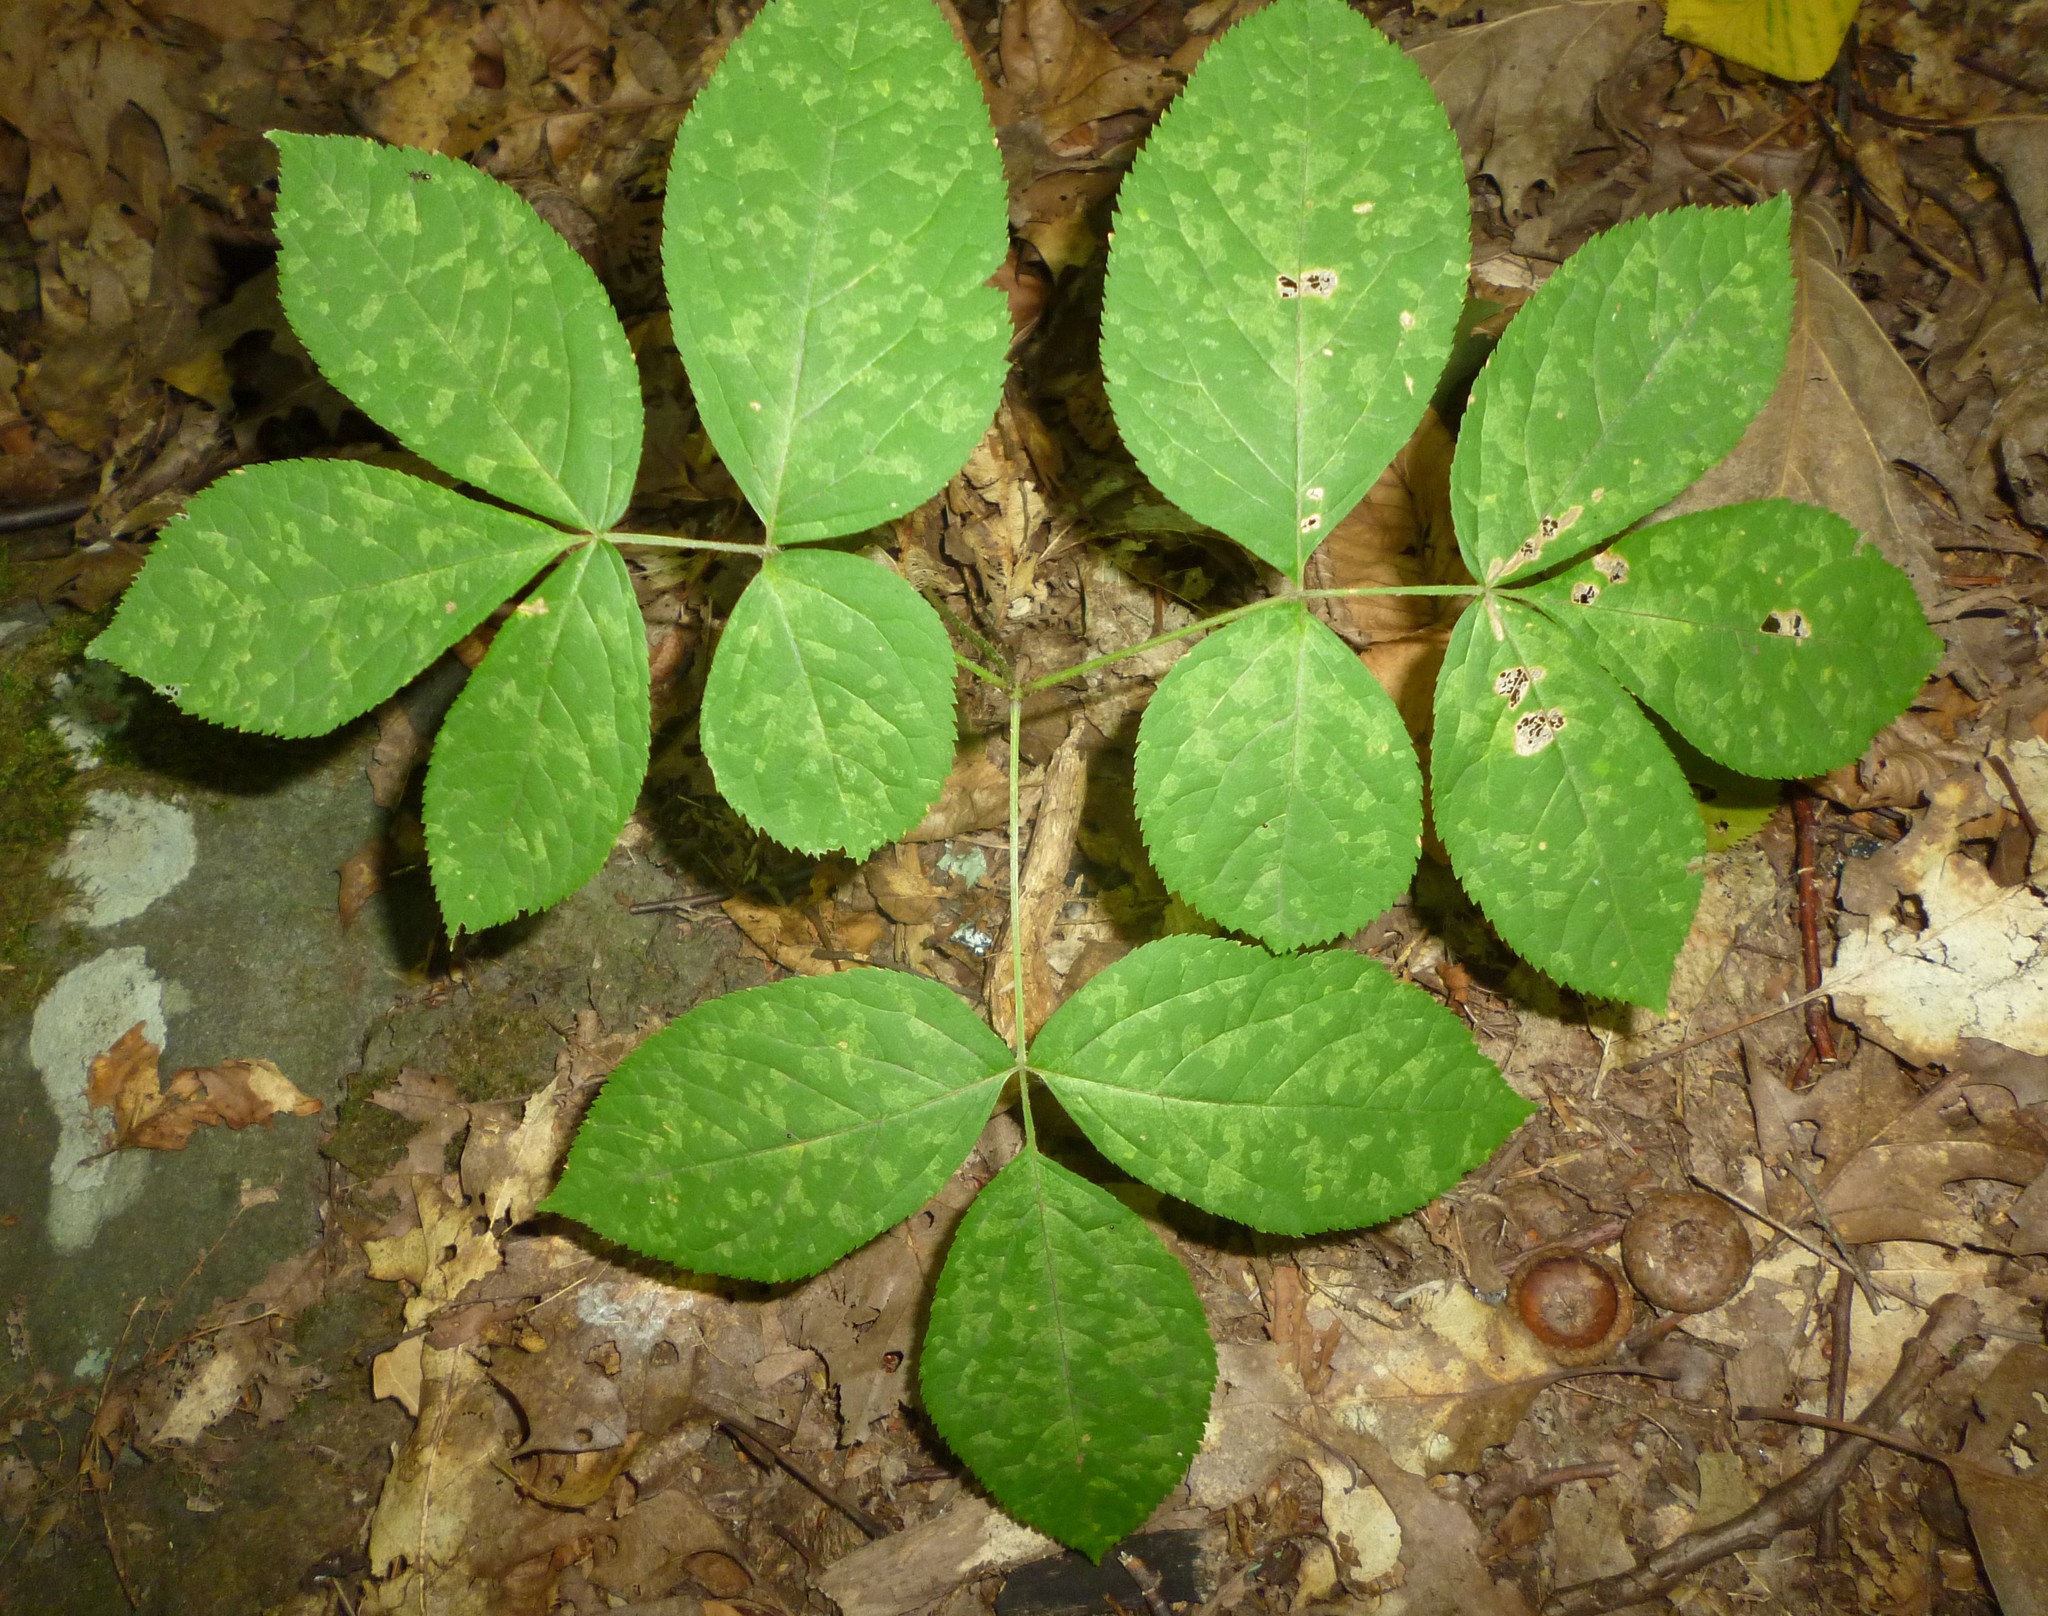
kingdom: Plantae
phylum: Tracheophyta
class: Magnoliopsida
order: Apiales
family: Araliaceae
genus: Aralia
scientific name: Aralia nudicaulis
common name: Wild sarsaparilla
